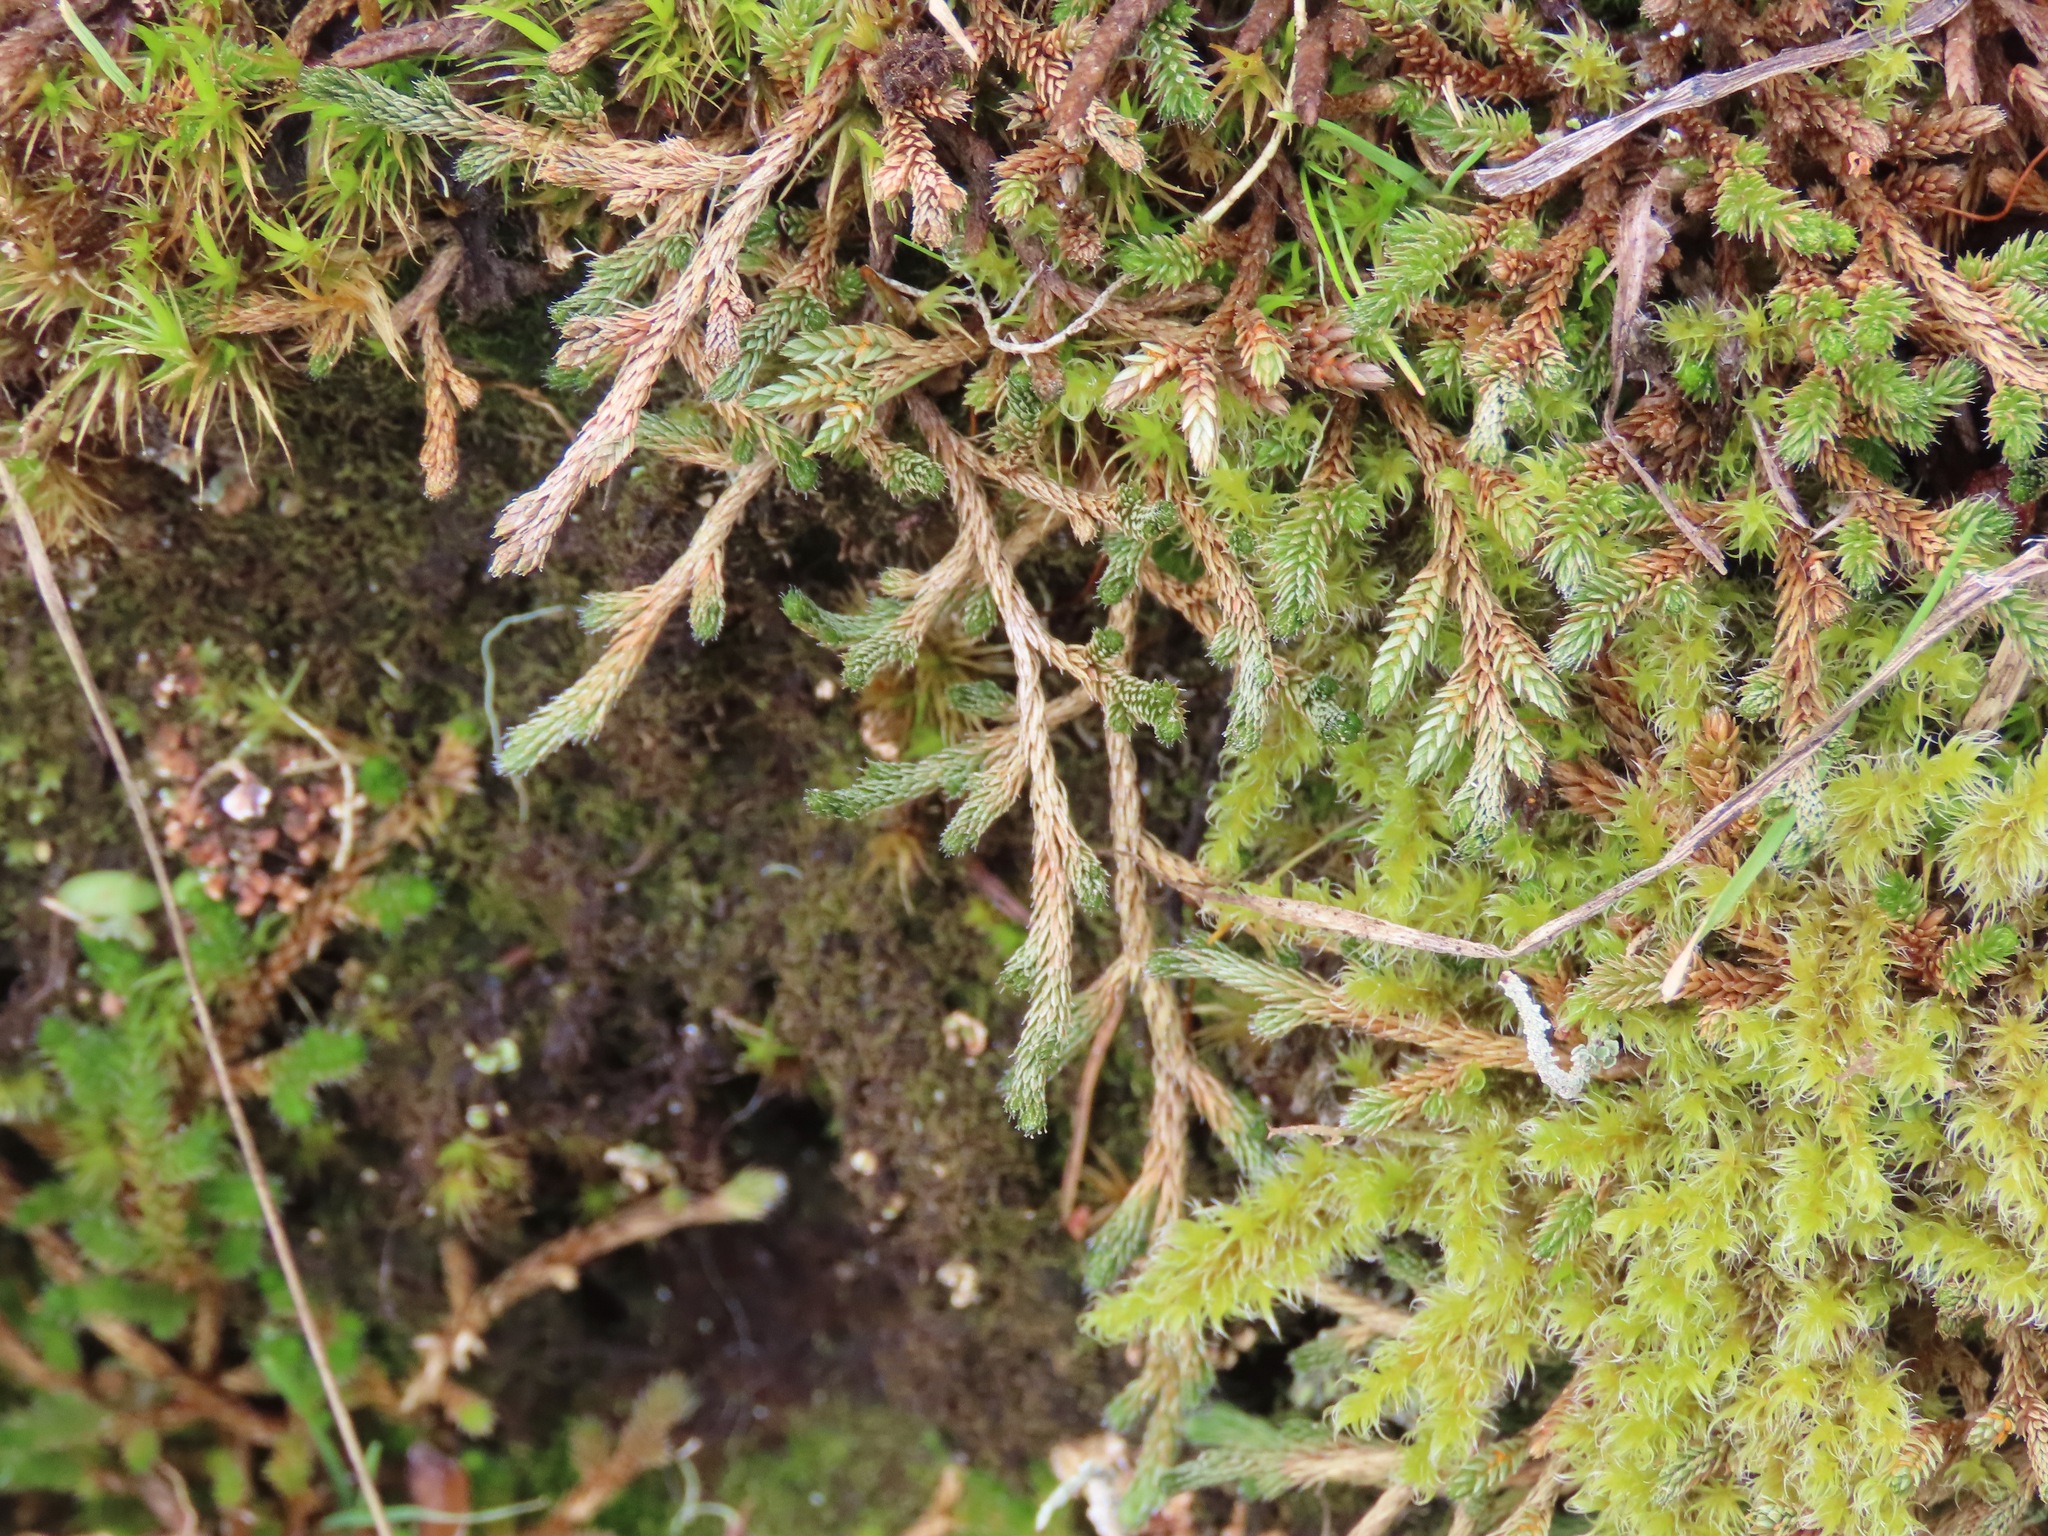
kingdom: Plantae
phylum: Tracheophyta
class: Lycopodiopsida
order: Selaginellales
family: Selaginellaceae
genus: Selaginella
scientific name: Selaginella wallacei
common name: Wallace's selaginella
